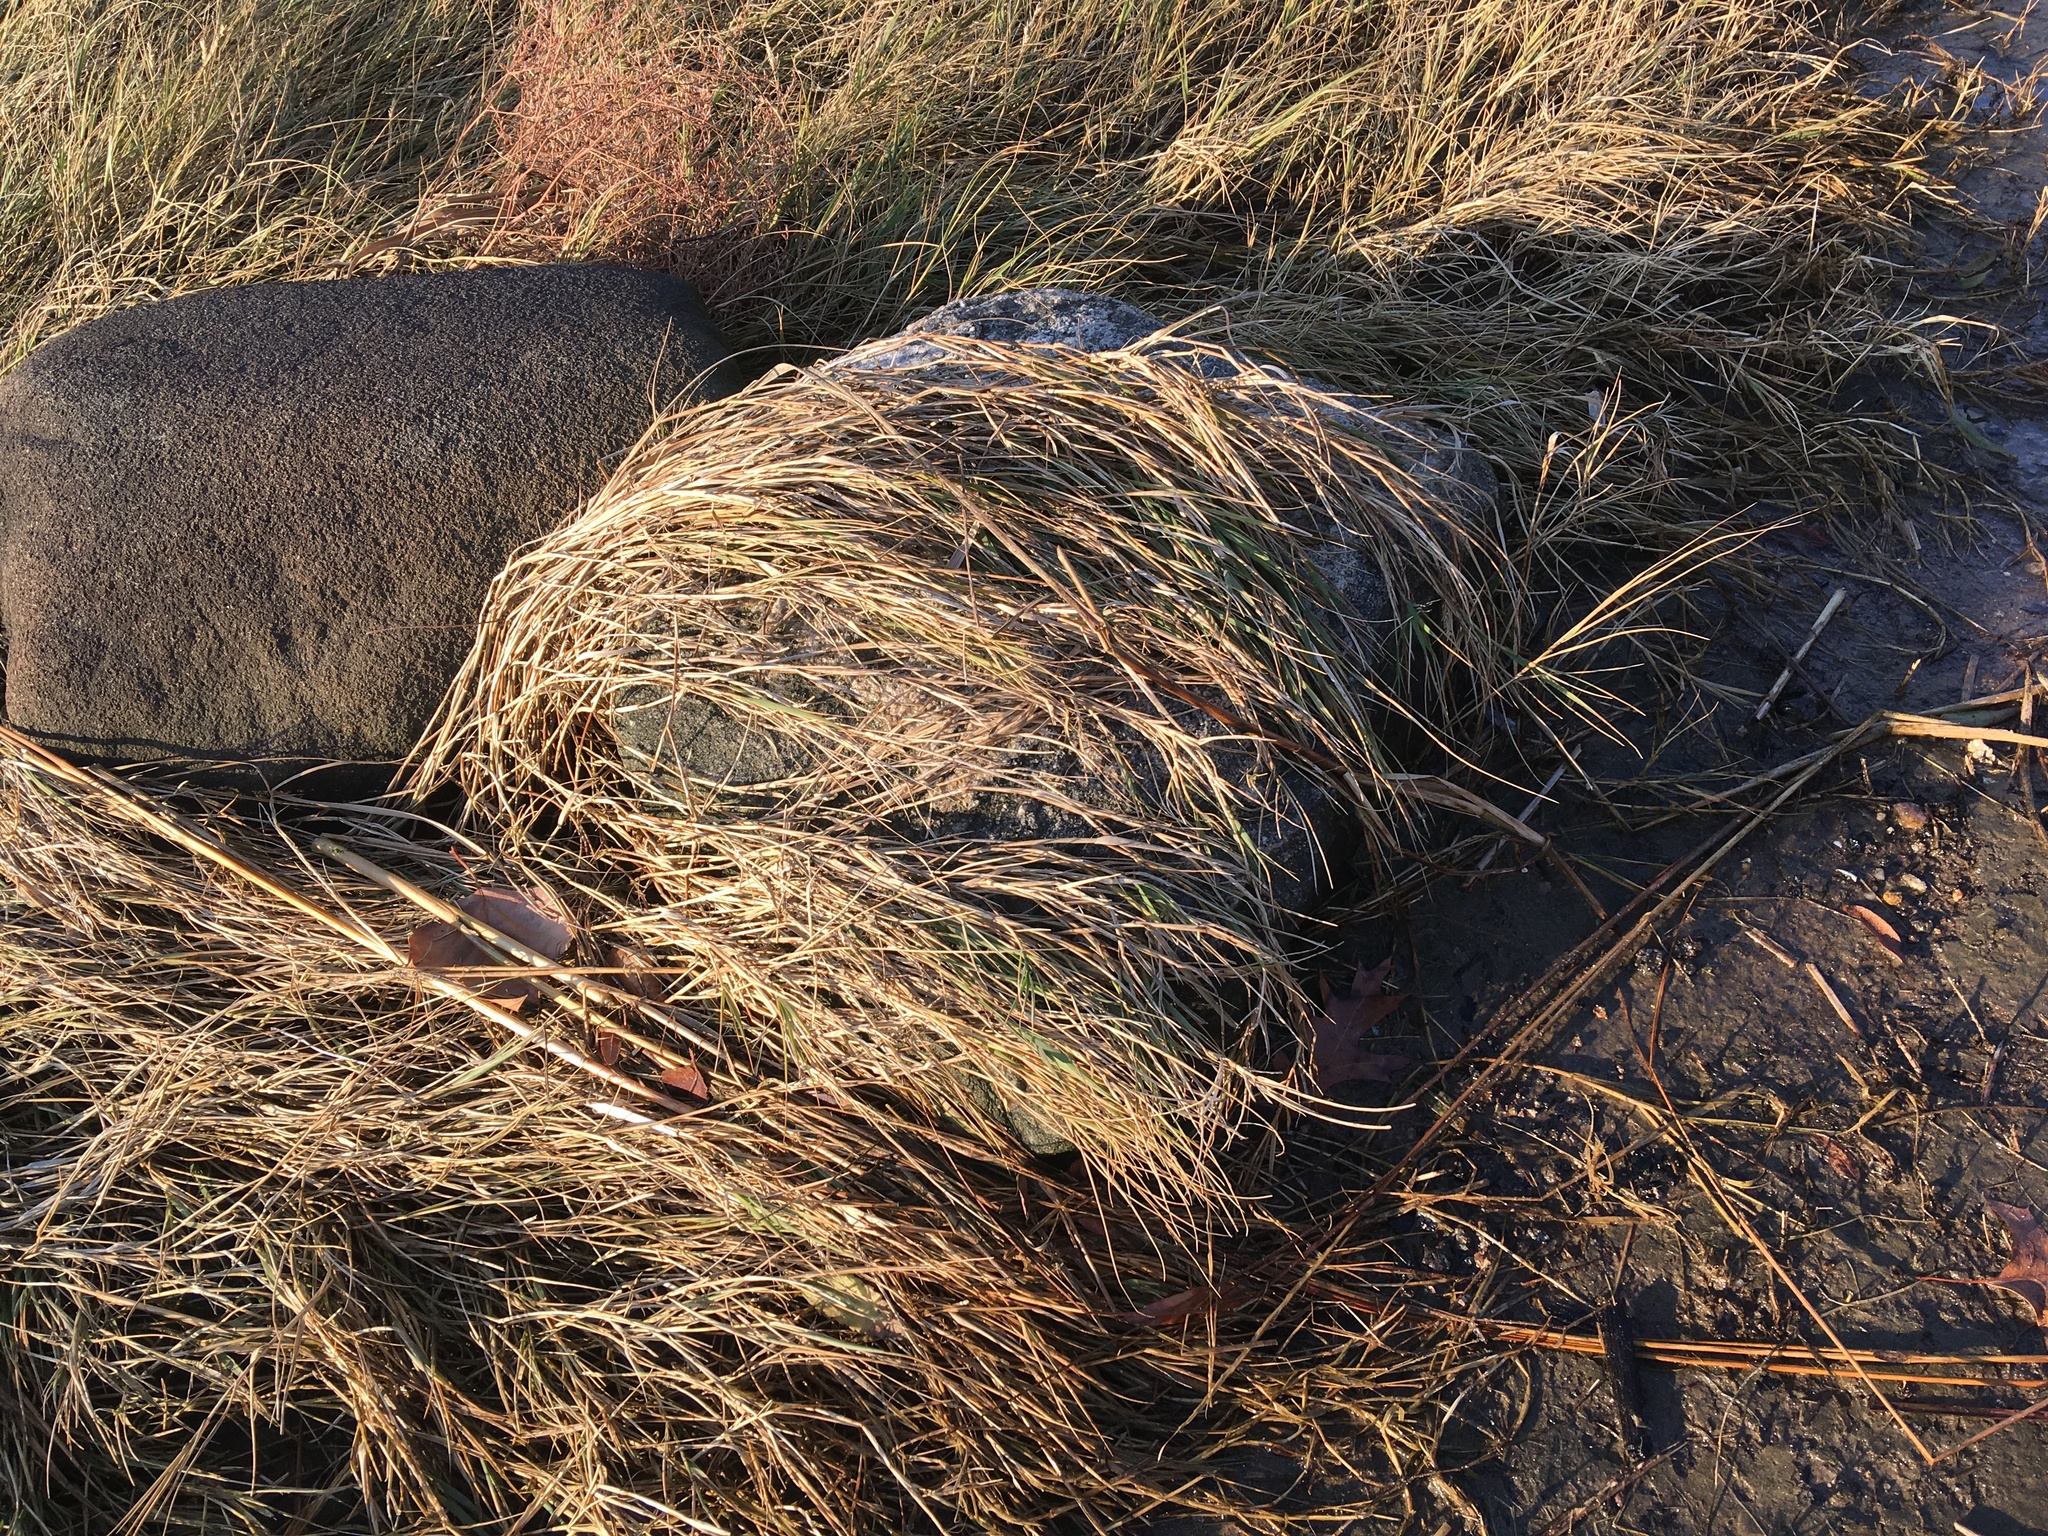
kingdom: Plantae
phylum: Tracheophyta
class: Liliopsida
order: Poales
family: Poaceae
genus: Sporobolus
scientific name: Sporobolus pumilus
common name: Highwater grass
